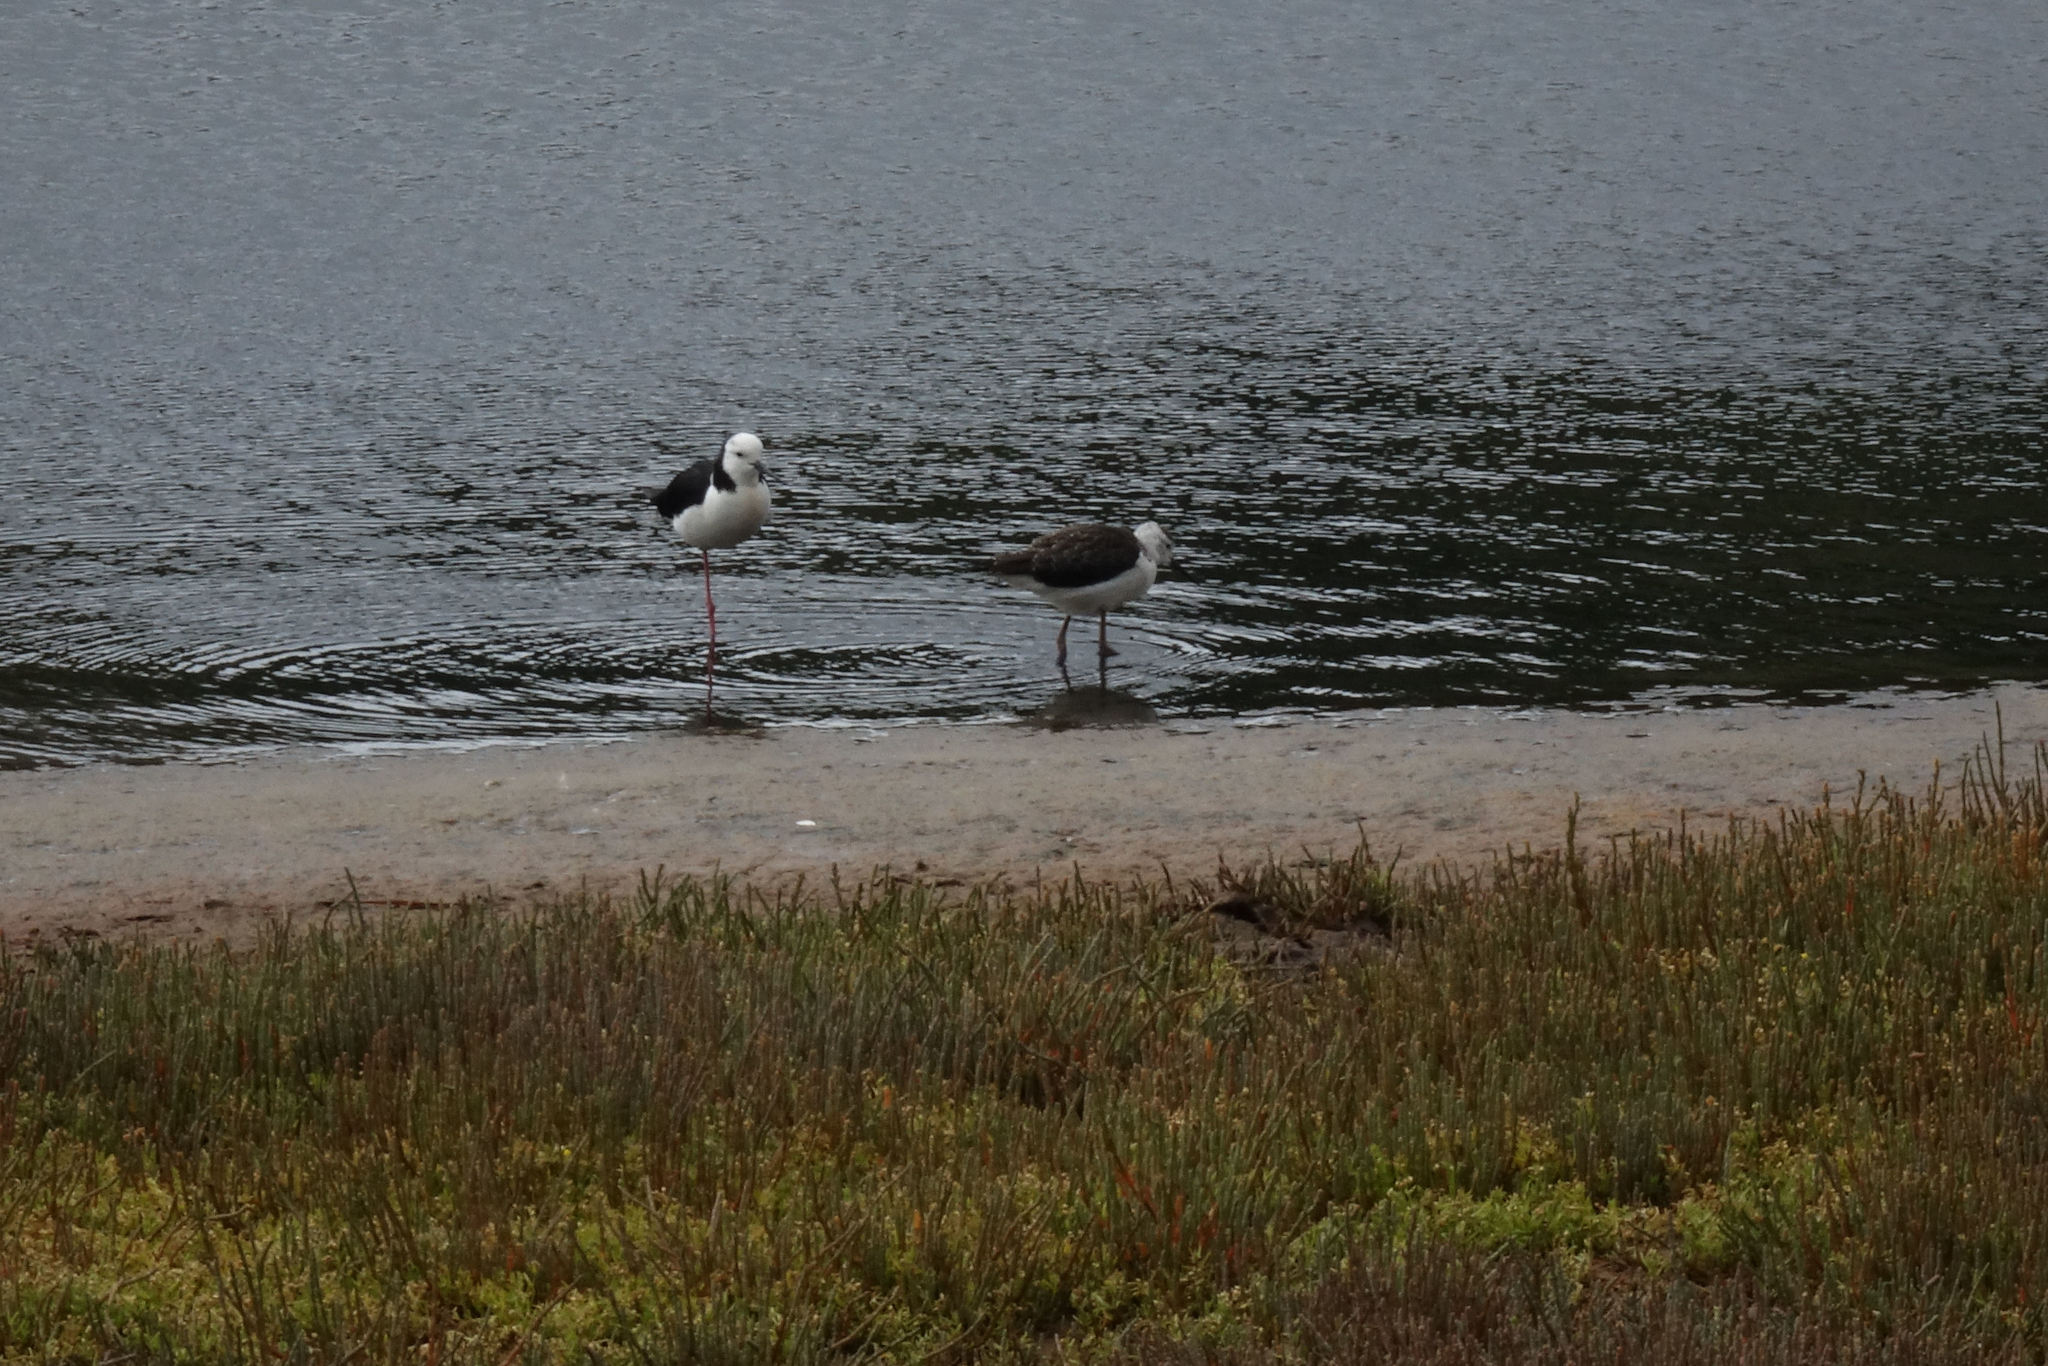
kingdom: Animalia
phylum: Chordata
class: Aves
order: Charadriiformes
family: Recurvirostridae
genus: Himantopus
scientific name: Himantopus leucocephalus
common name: White-headed stilt
